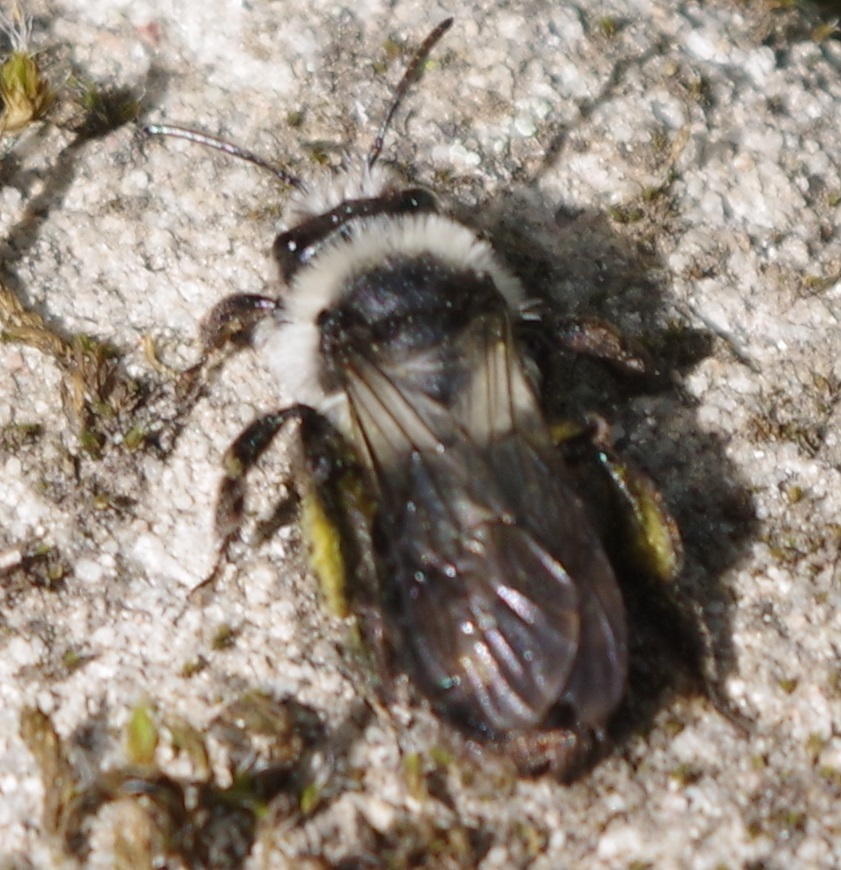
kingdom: Animalia
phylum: Arthropoda
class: Insecta
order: Hymenoptera
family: Andrenidae
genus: Andrena
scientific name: Andrena cineraria
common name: Ashy mining bee
